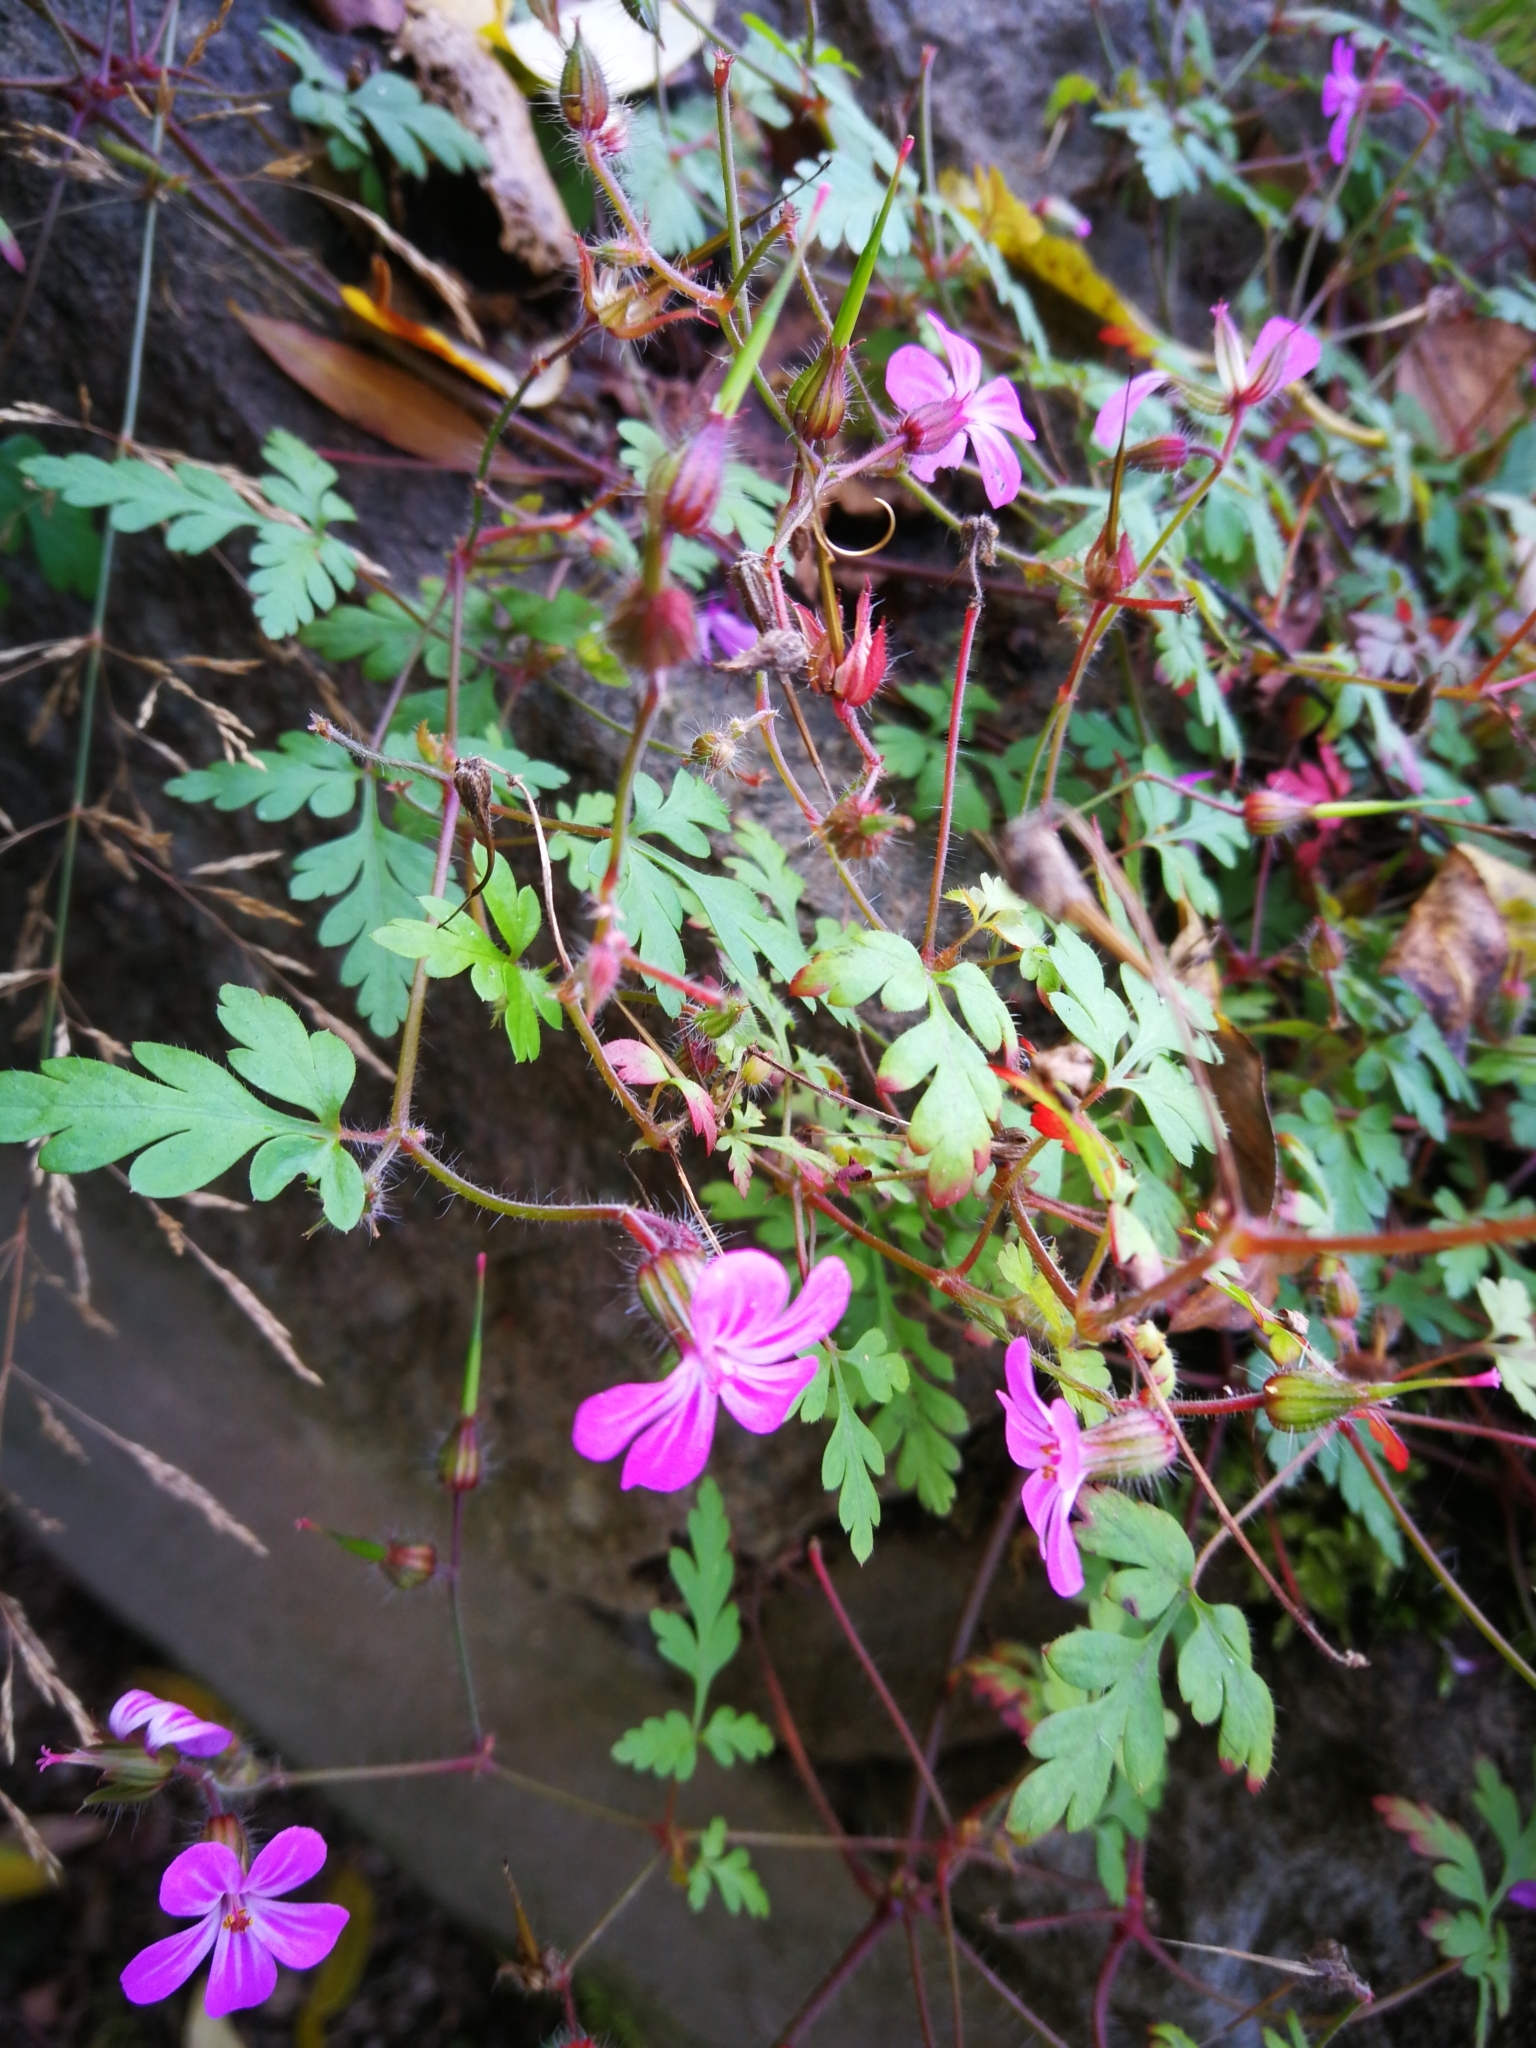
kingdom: Plantae
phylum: Tracheophyta
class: Magnoliopsida
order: Geraniales
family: Geraniaceae
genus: Geranium
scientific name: Geranium robertianum
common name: Herb-robert
